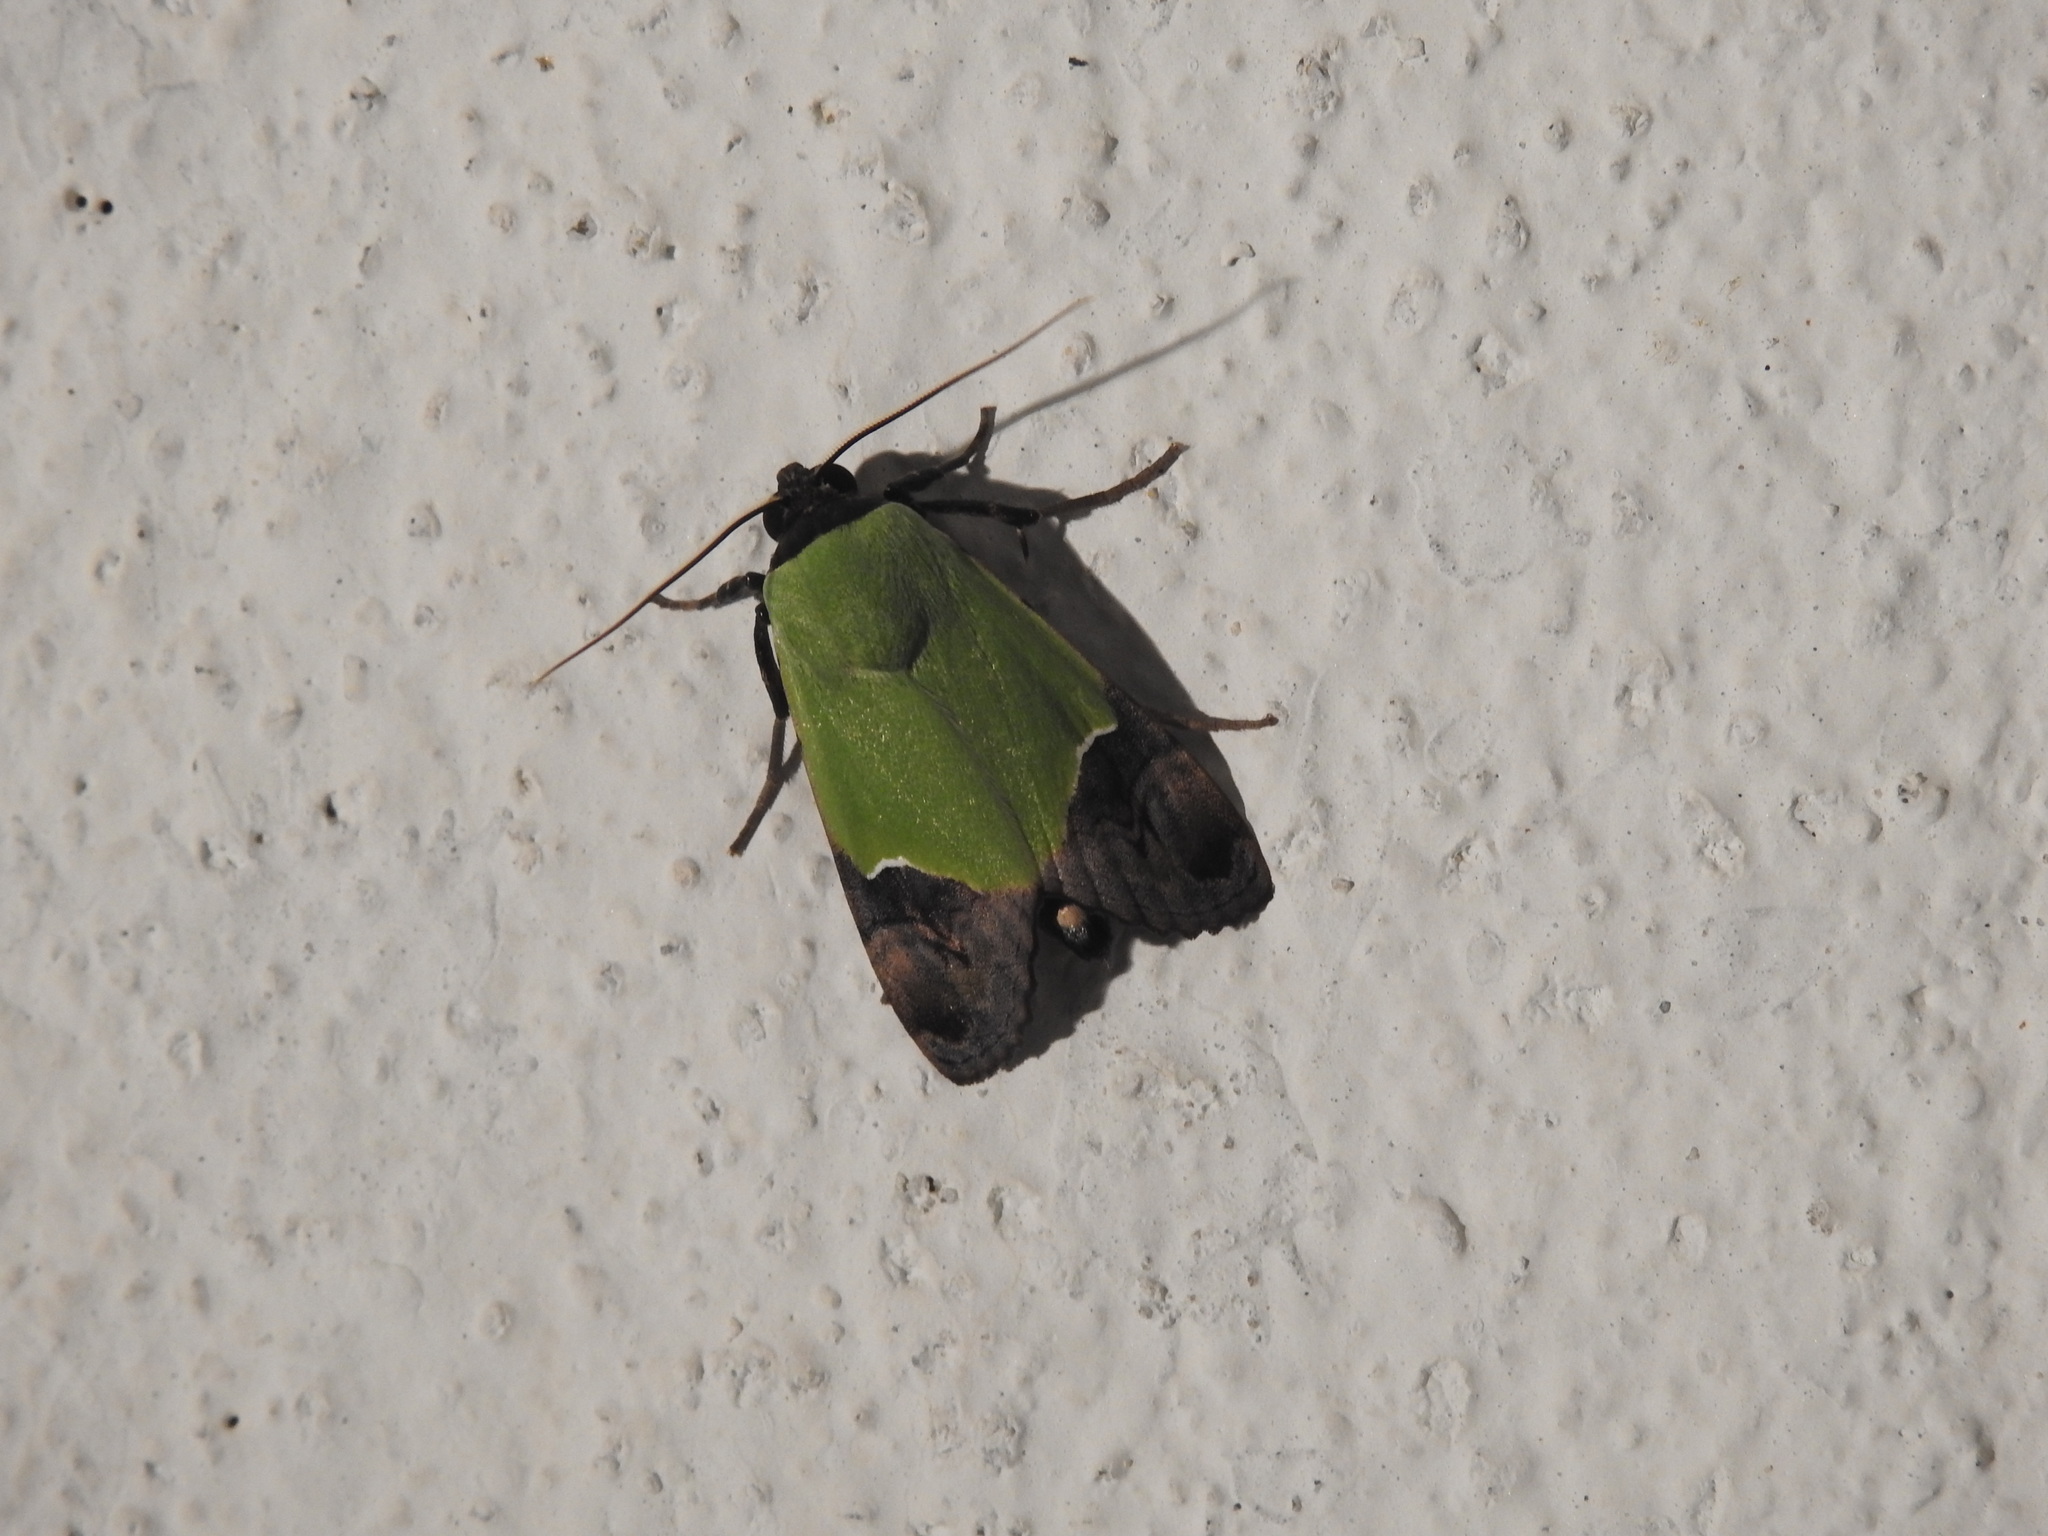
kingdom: Animalia
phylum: Arthropoda
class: Insecta
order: Lepidoptera
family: Erebidae
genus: Hemichloridia
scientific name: Hemichloridia euprepia
